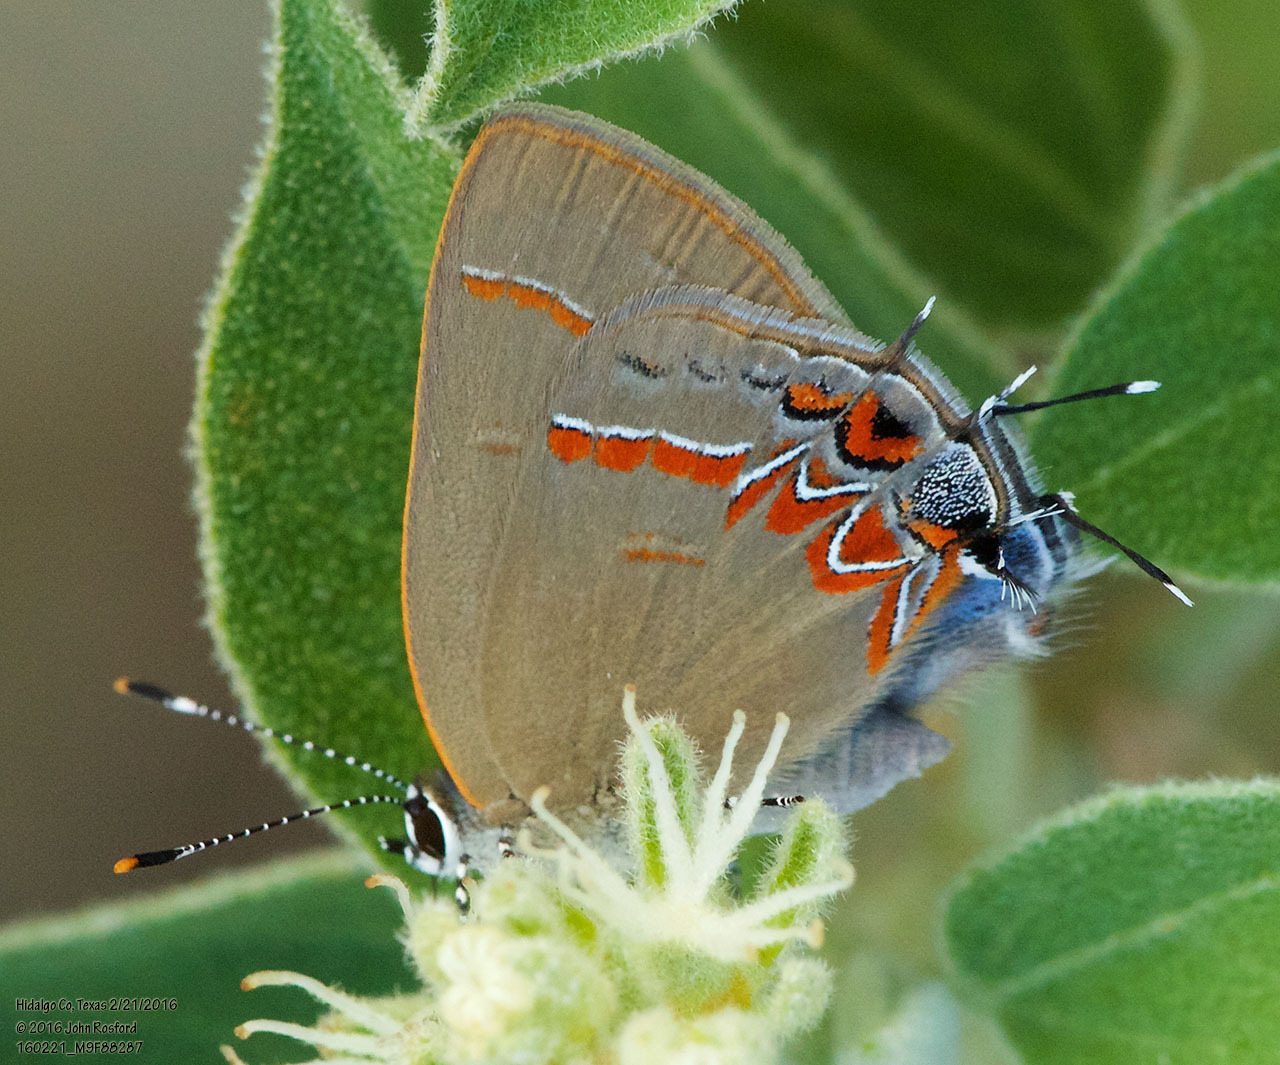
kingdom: Animalia
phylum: Arthropoda
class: Insecta
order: Lepidoptera
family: Lycaenidae
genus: Calycopis
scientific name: Calycopis isobeon
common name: Dusky-blue groundstreak
